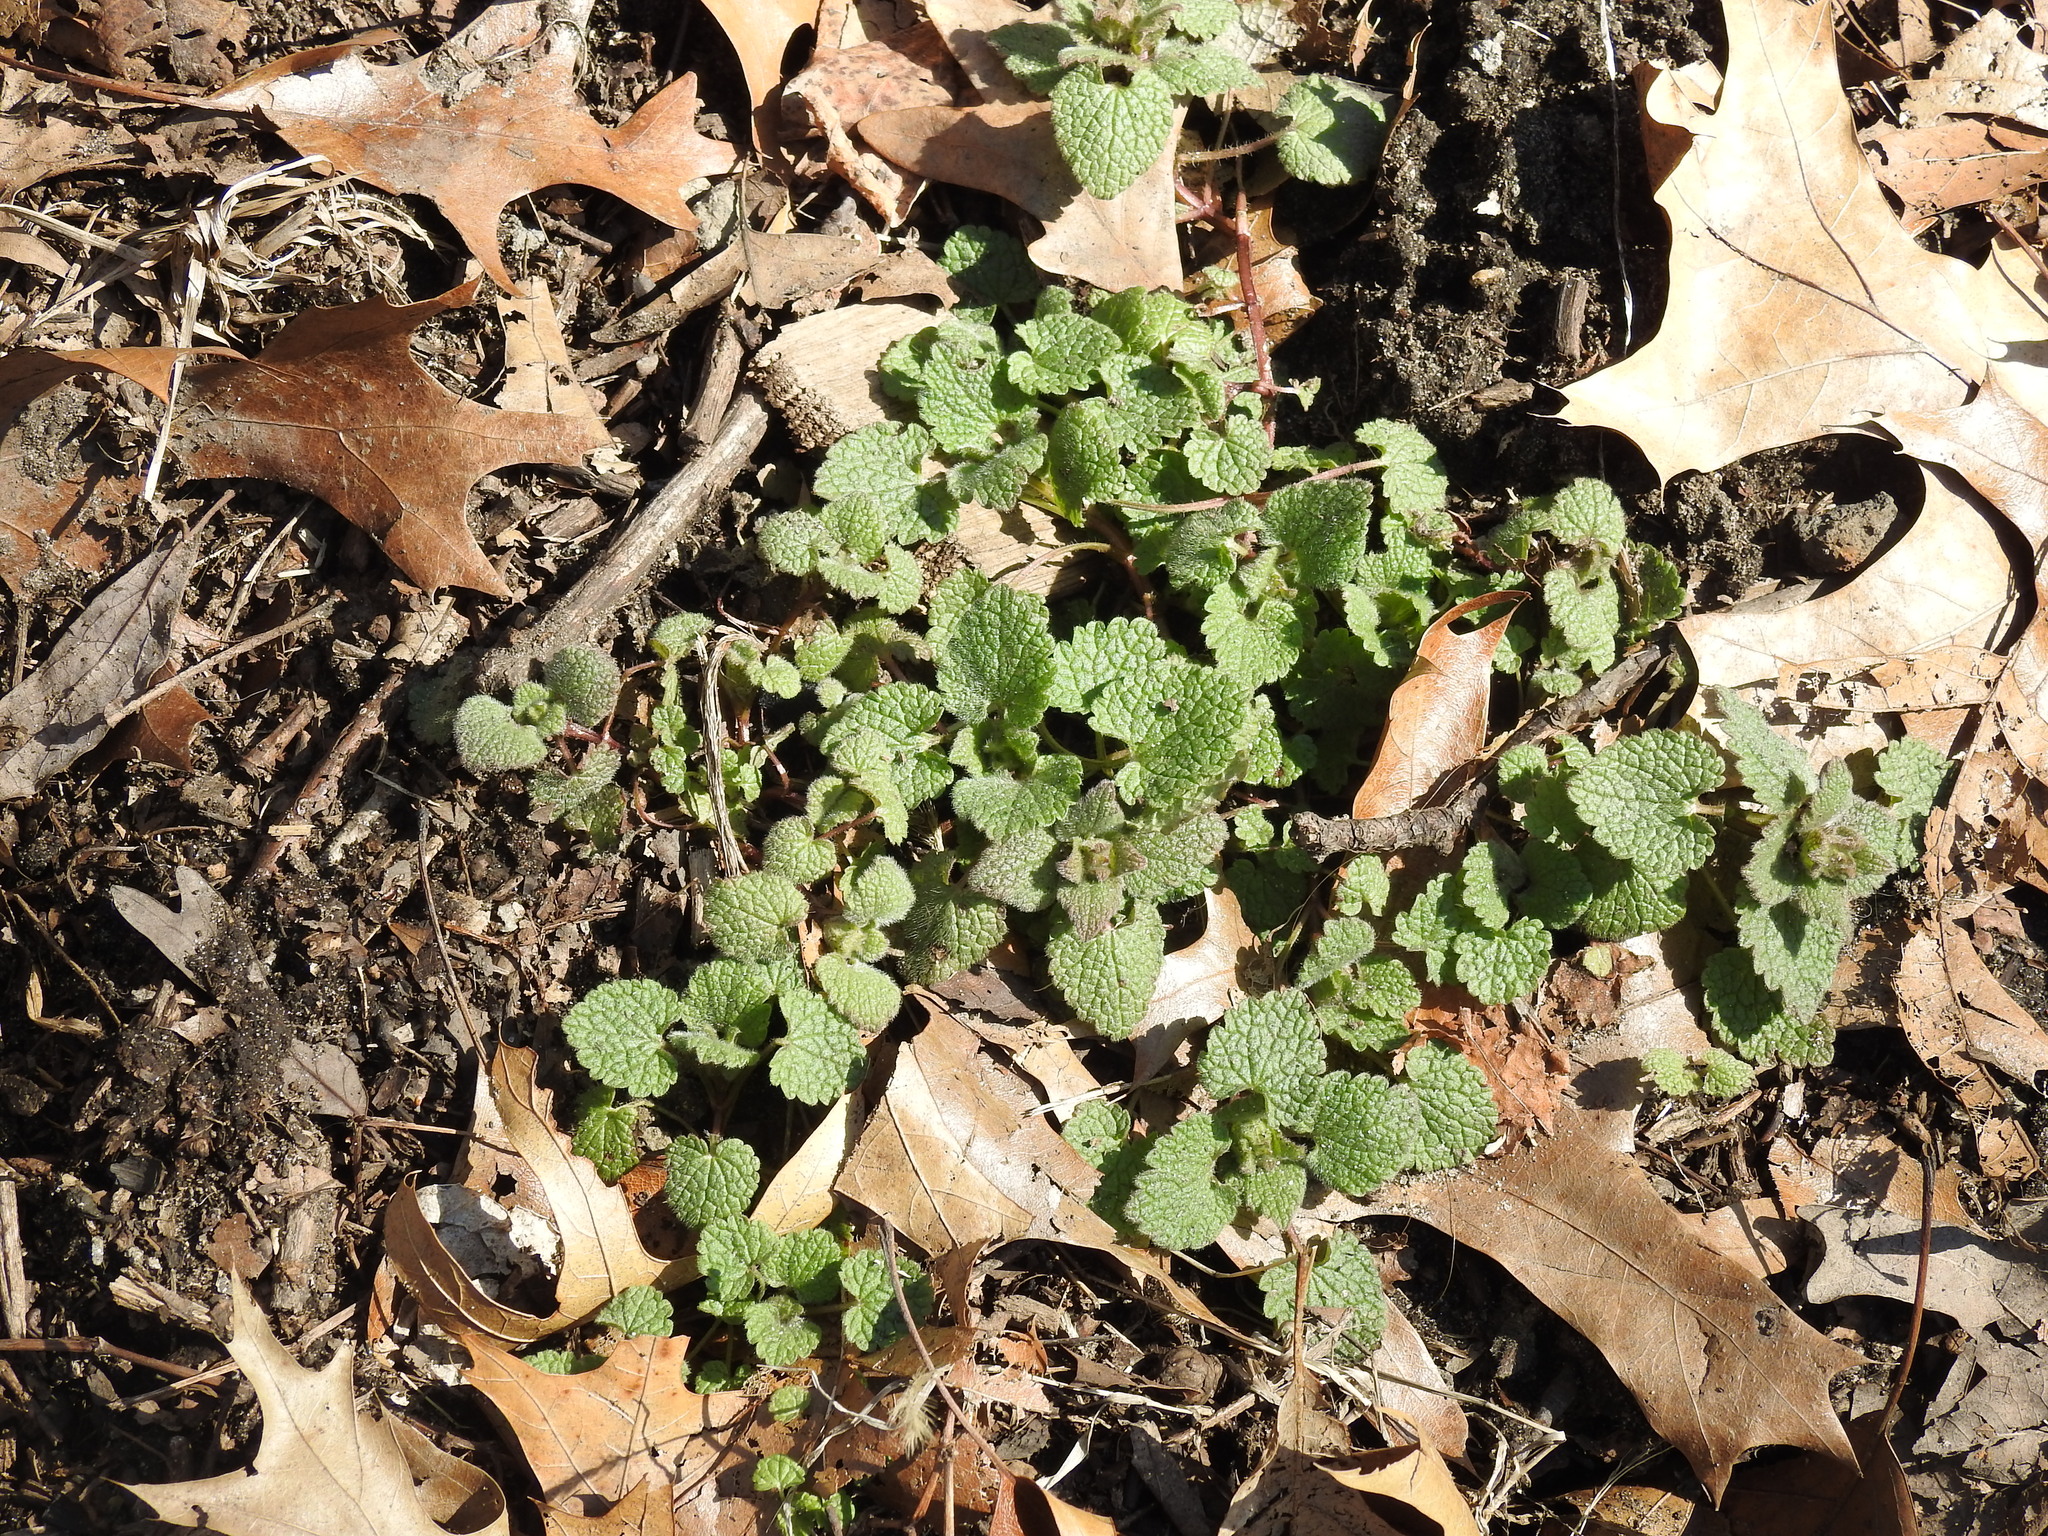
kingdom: Plantae
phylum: Tracheophyta
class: Magnoliopsida
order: Lamiales
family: Lamiaceae
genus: Lamium
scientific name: Lamium purpureum
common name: Red dead-nettle
